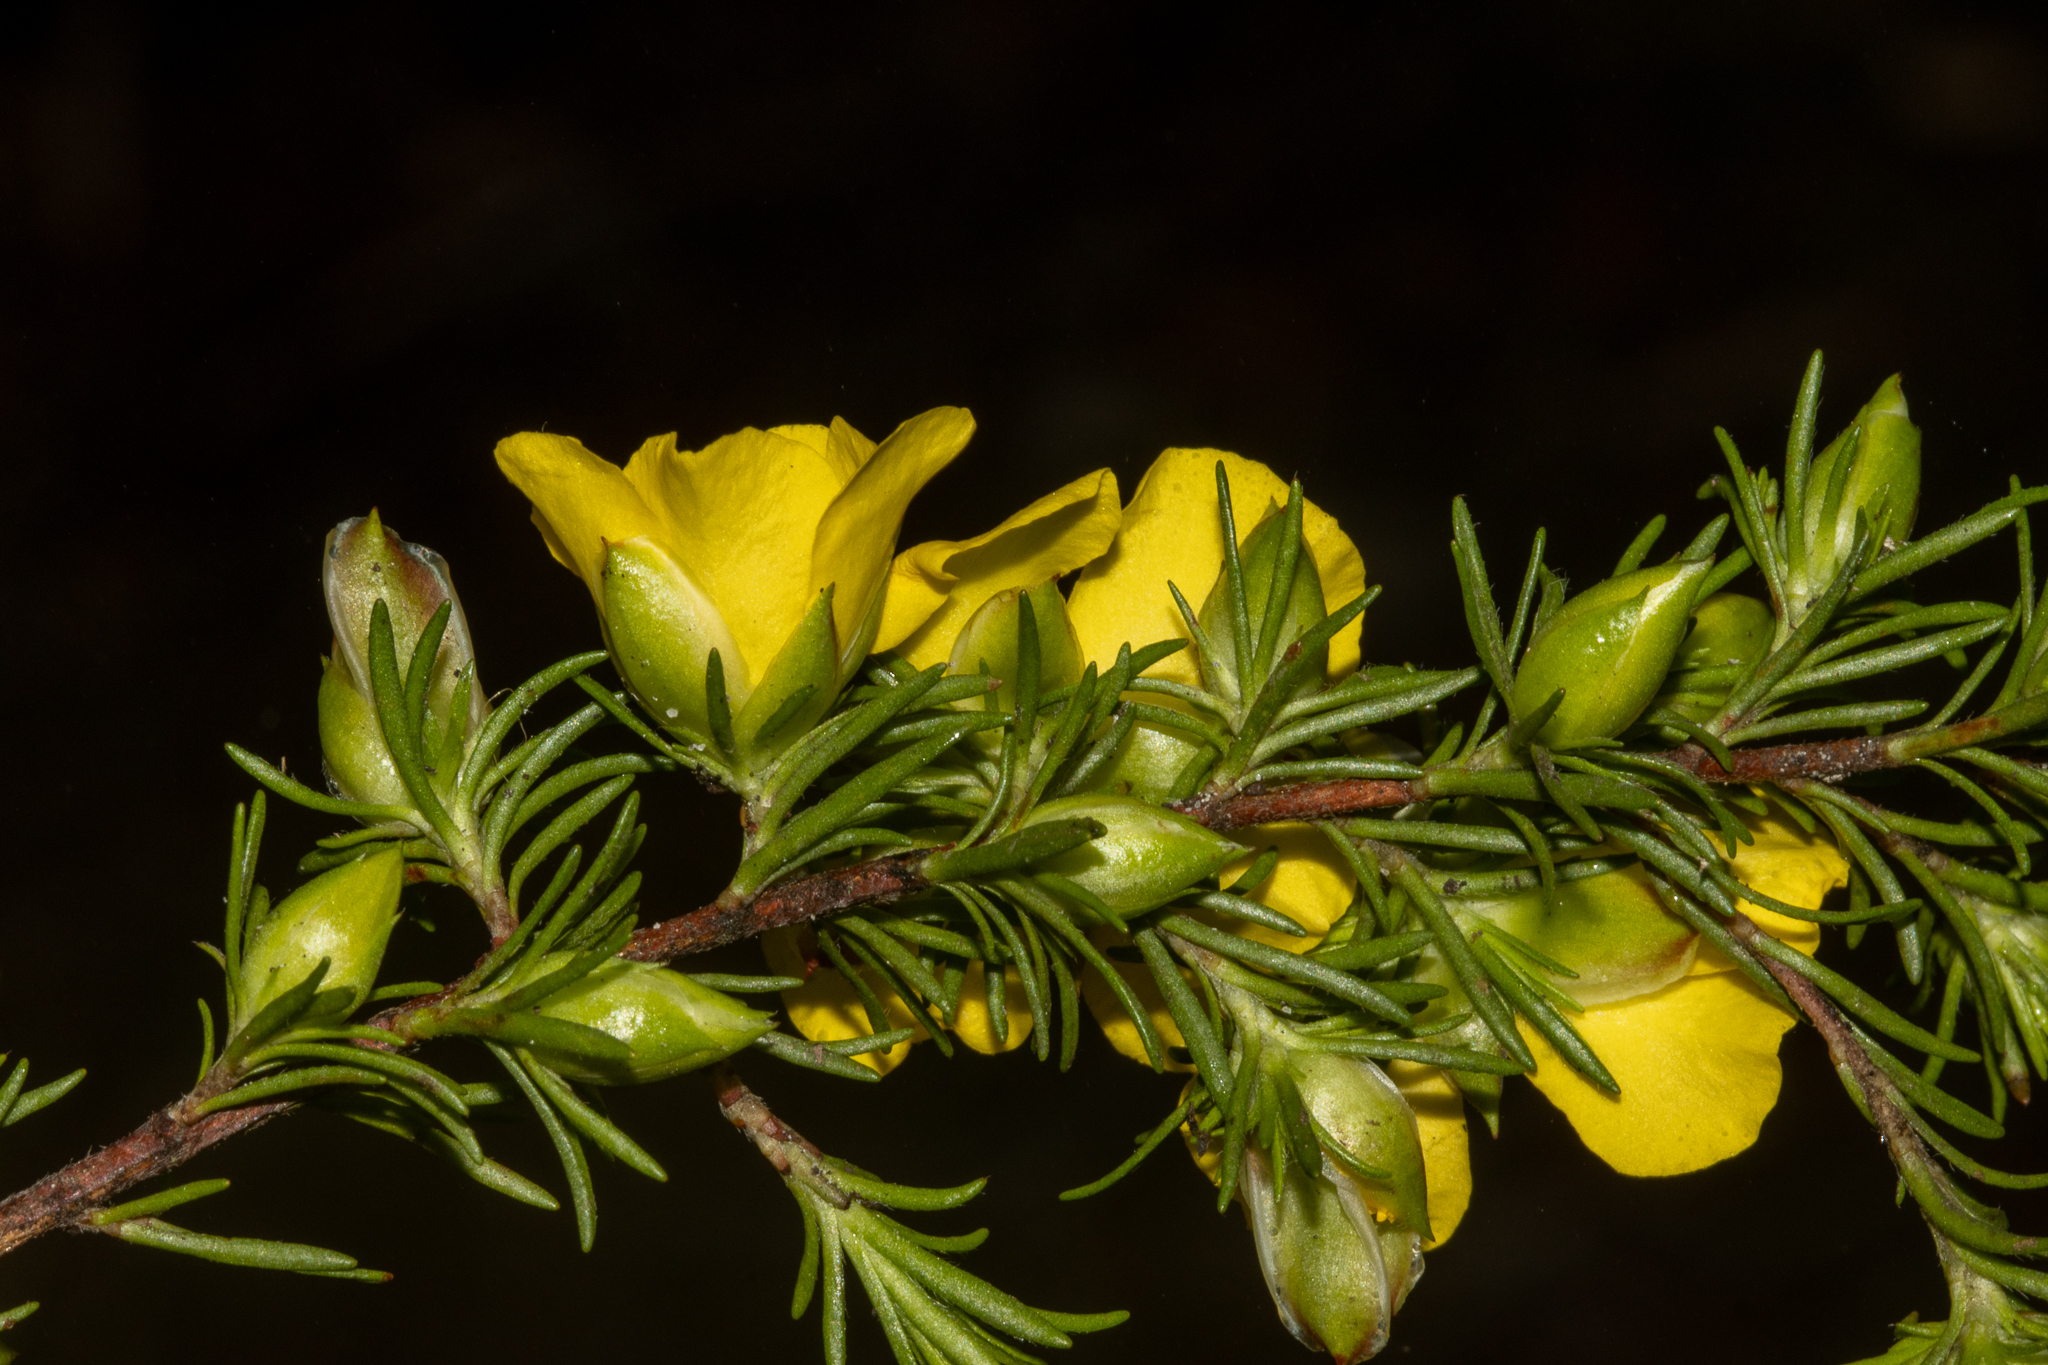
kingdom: Plantae
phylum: Tracheophyta
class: Magnoliopsida
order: Dilleniales
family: Dilleniaceae
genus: Hibbertia
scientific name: Hibbertia procumbens
